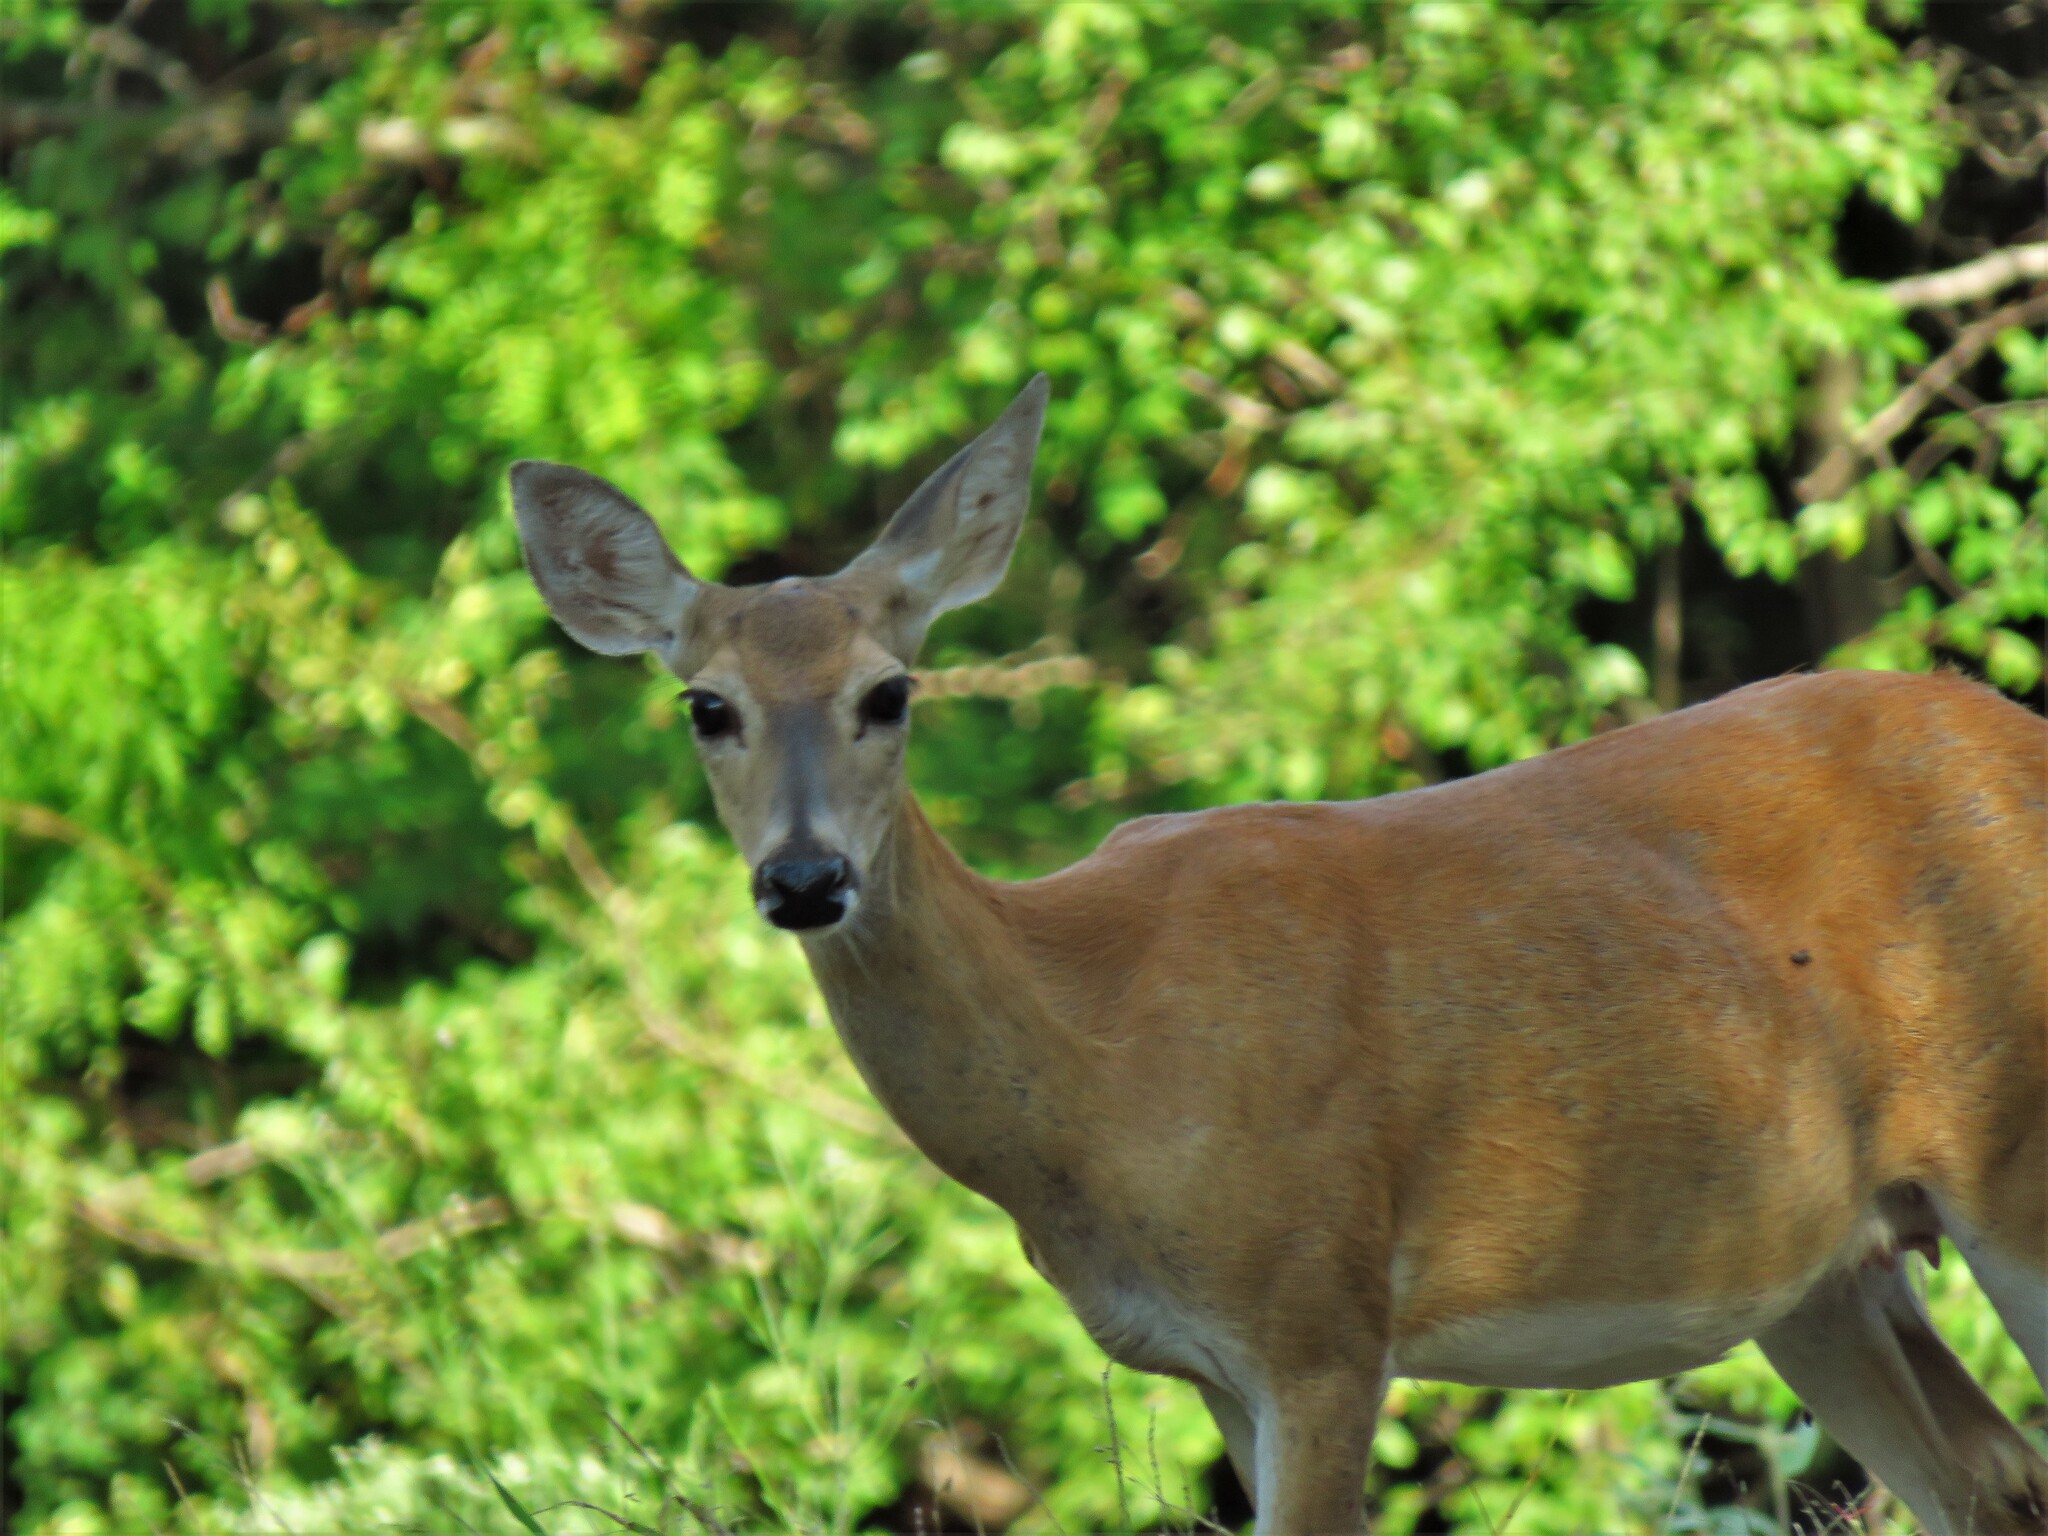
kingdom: Animalia
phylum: Chordata
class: Mammalia
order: Artiodactyla
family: Cervidae
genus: Odocoileus
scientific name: Odocoileus virginianus
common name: White-tailed deer
